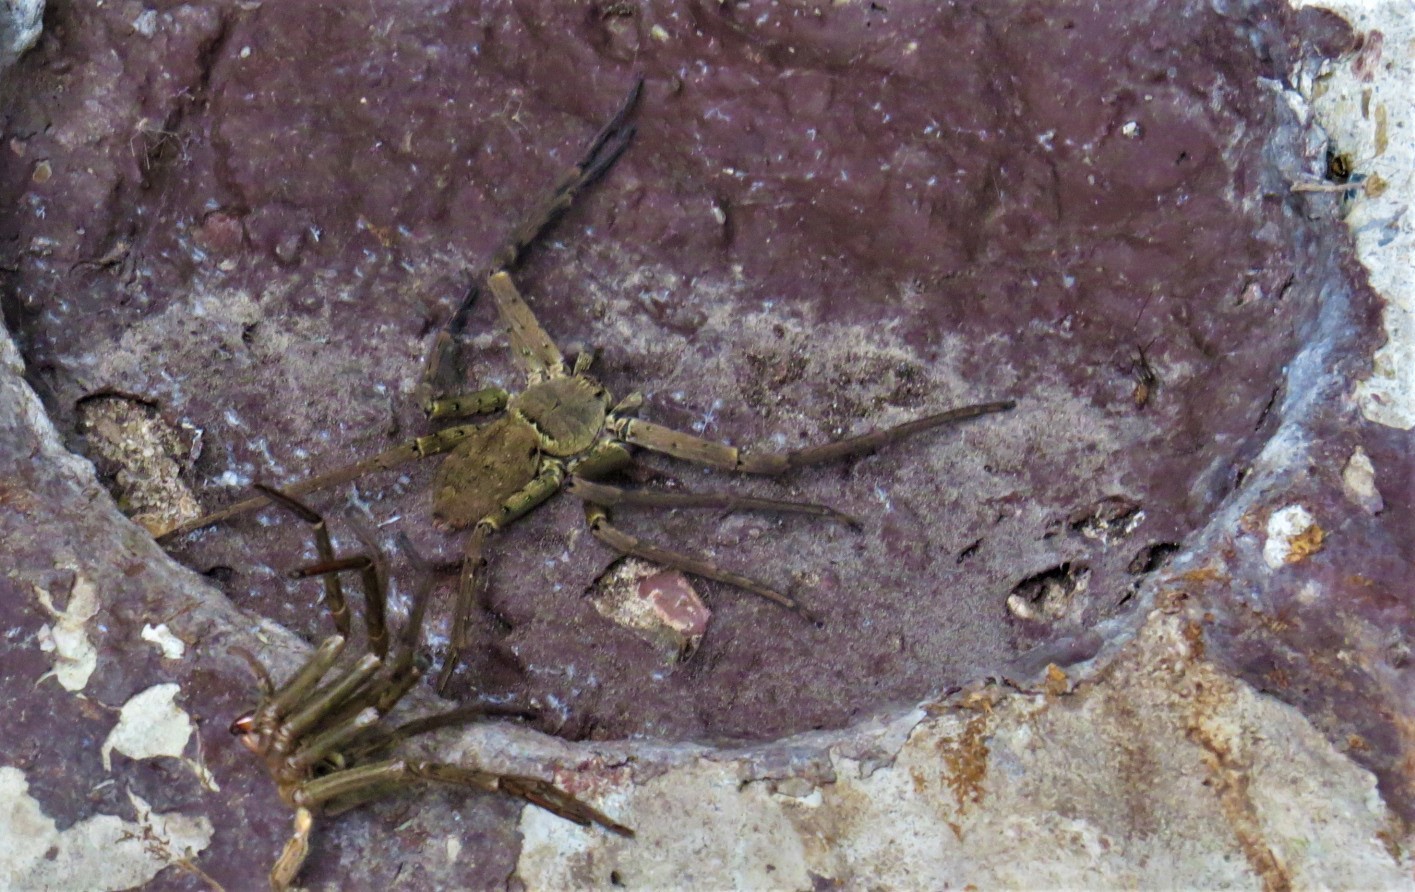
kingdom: Animalia
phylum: Arthropoda
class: Arachnida
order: Araneae
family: Sparassidae
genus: Heteropoda
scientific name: Heteropoda venatoria
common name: Huntsman spider
